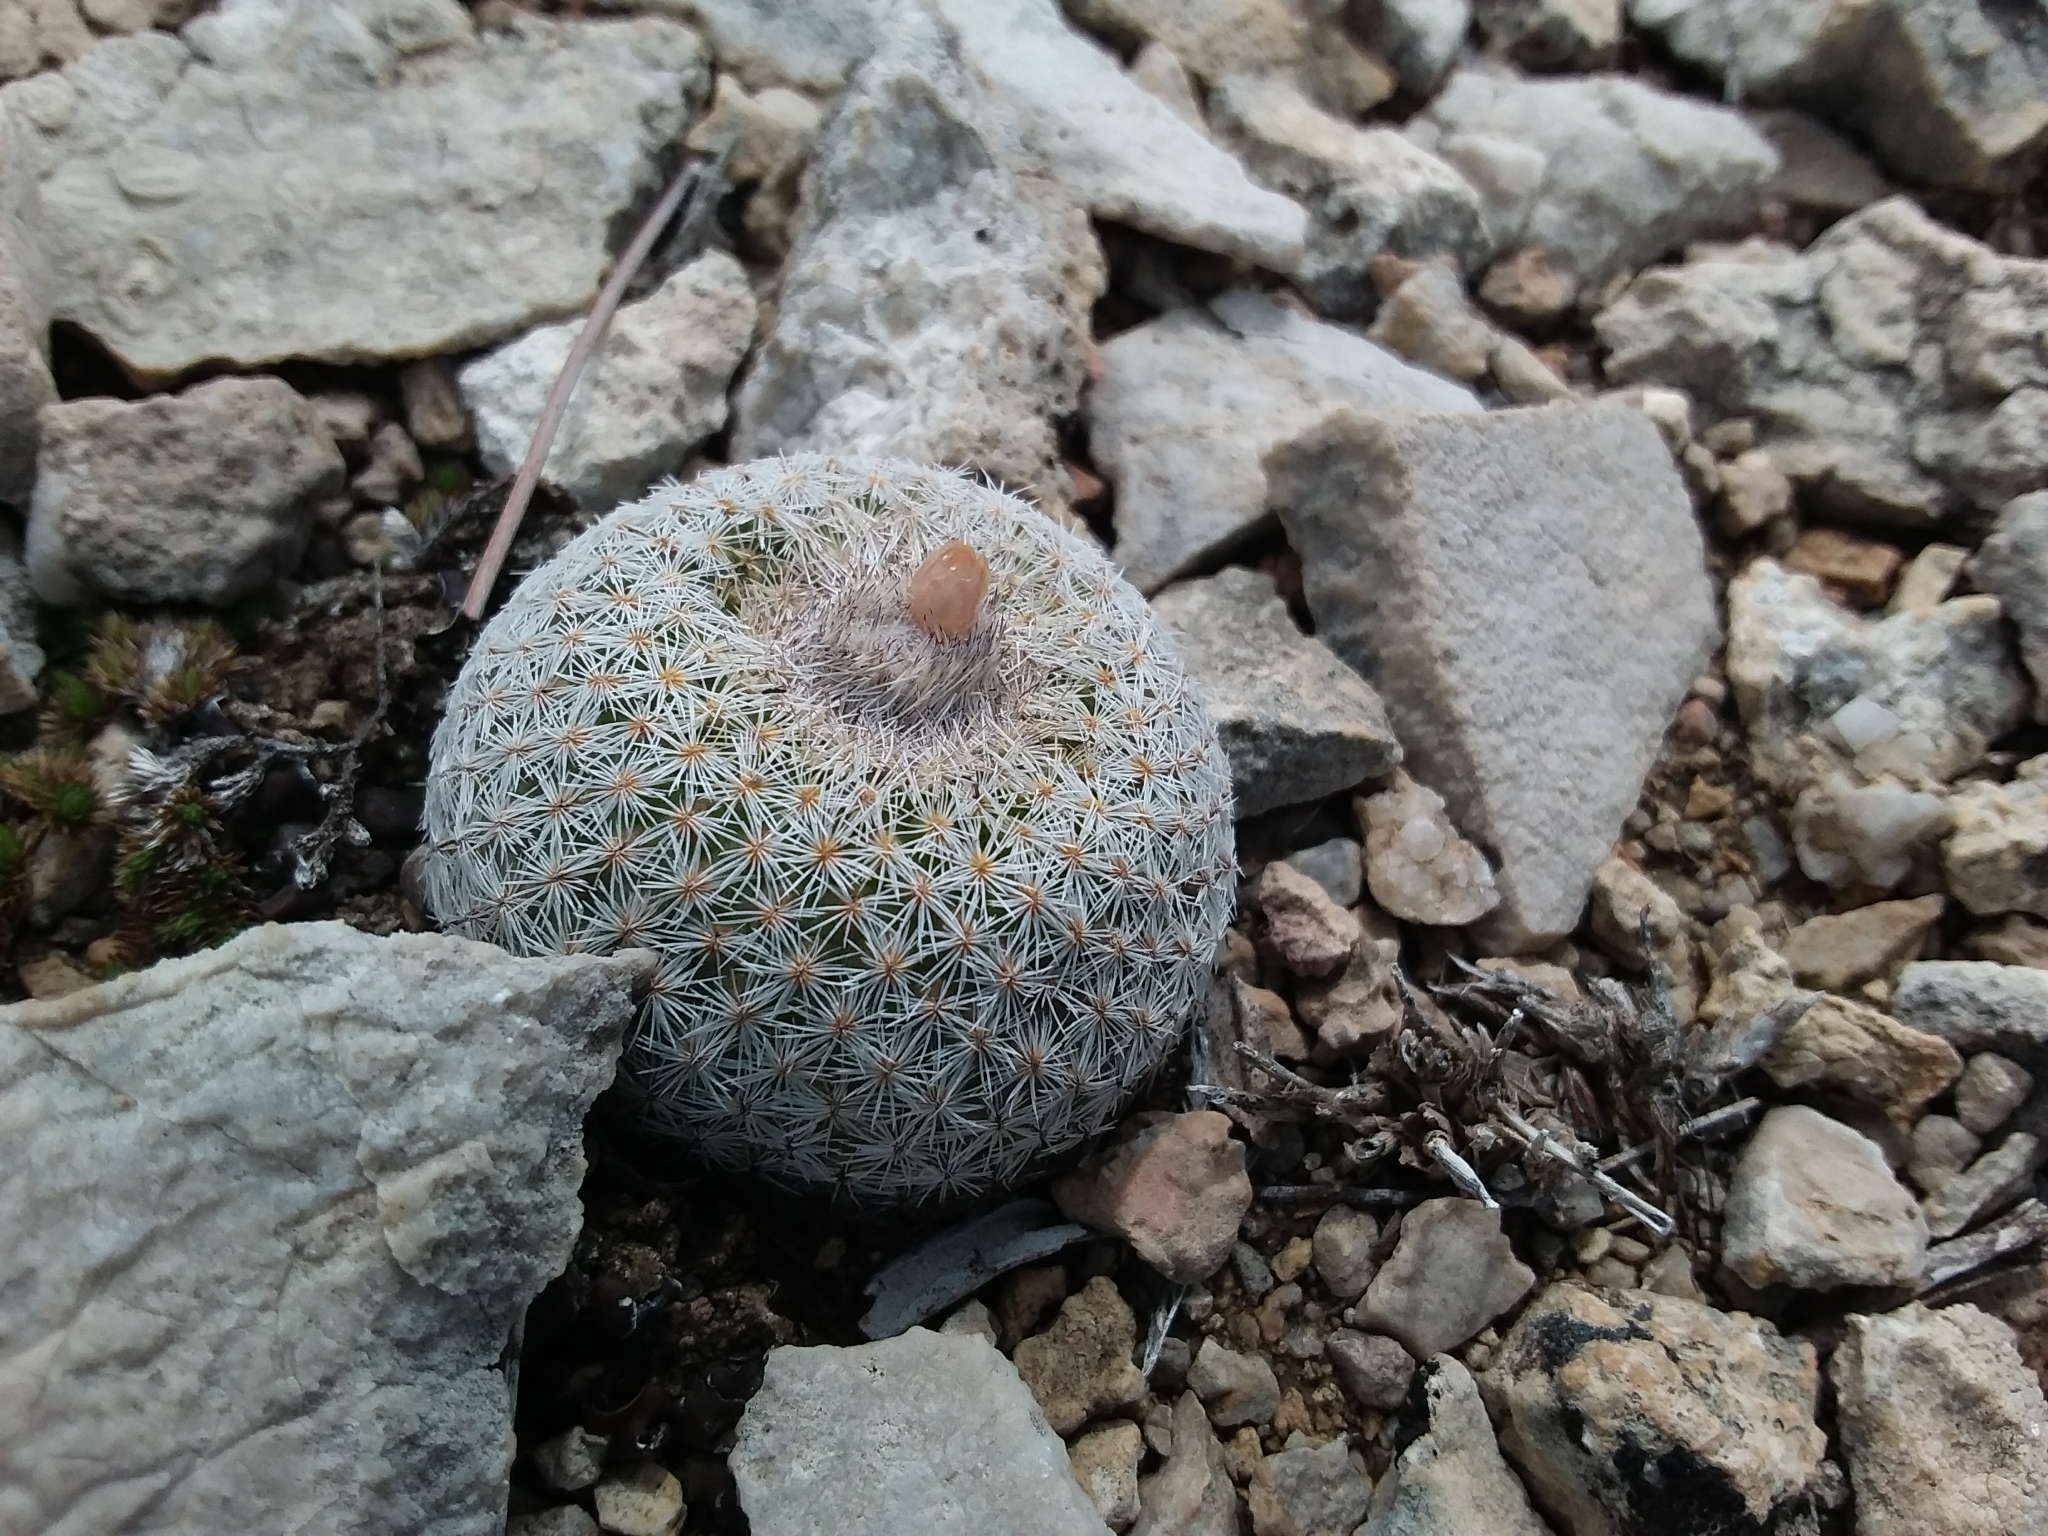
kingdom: Plantae
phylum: Tracheophyta
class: Magnoliopsida
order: Caryophyllales
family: Cactaceae
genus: Epithelantha
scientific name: Epithelantha micromeris
